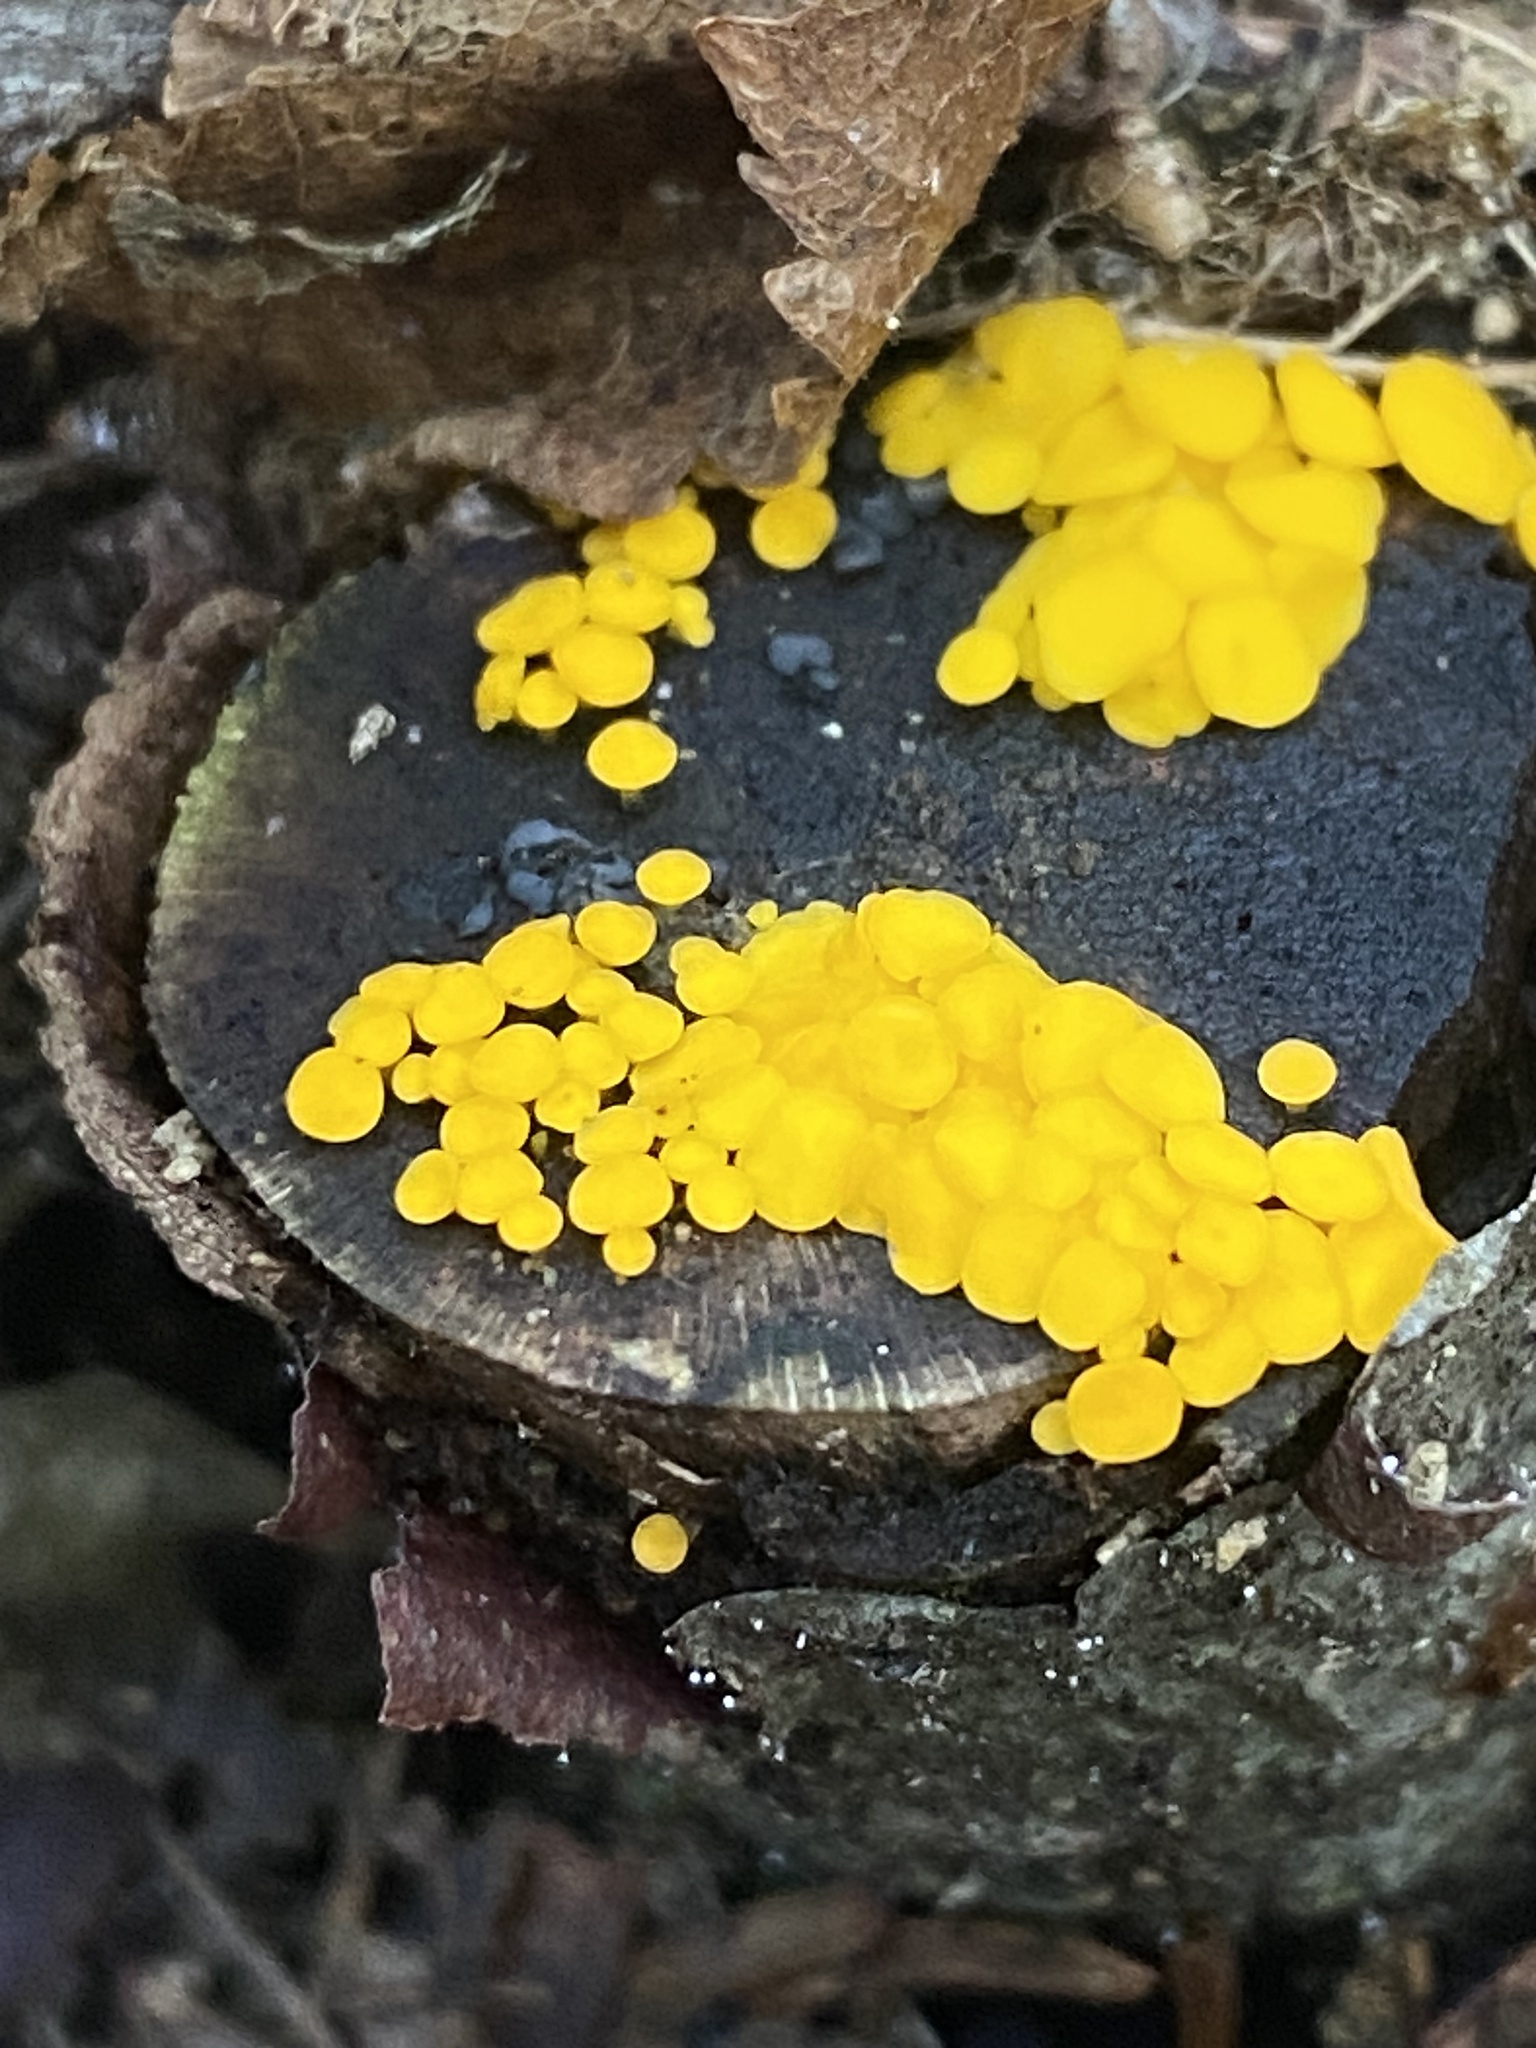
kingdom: Fungi
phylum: Ascomycota
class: Leotiomycetes
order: Helotiales
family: Pezizellaceae
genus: Calycina
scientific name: Calycina citrina
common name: Yellow fairy cups
